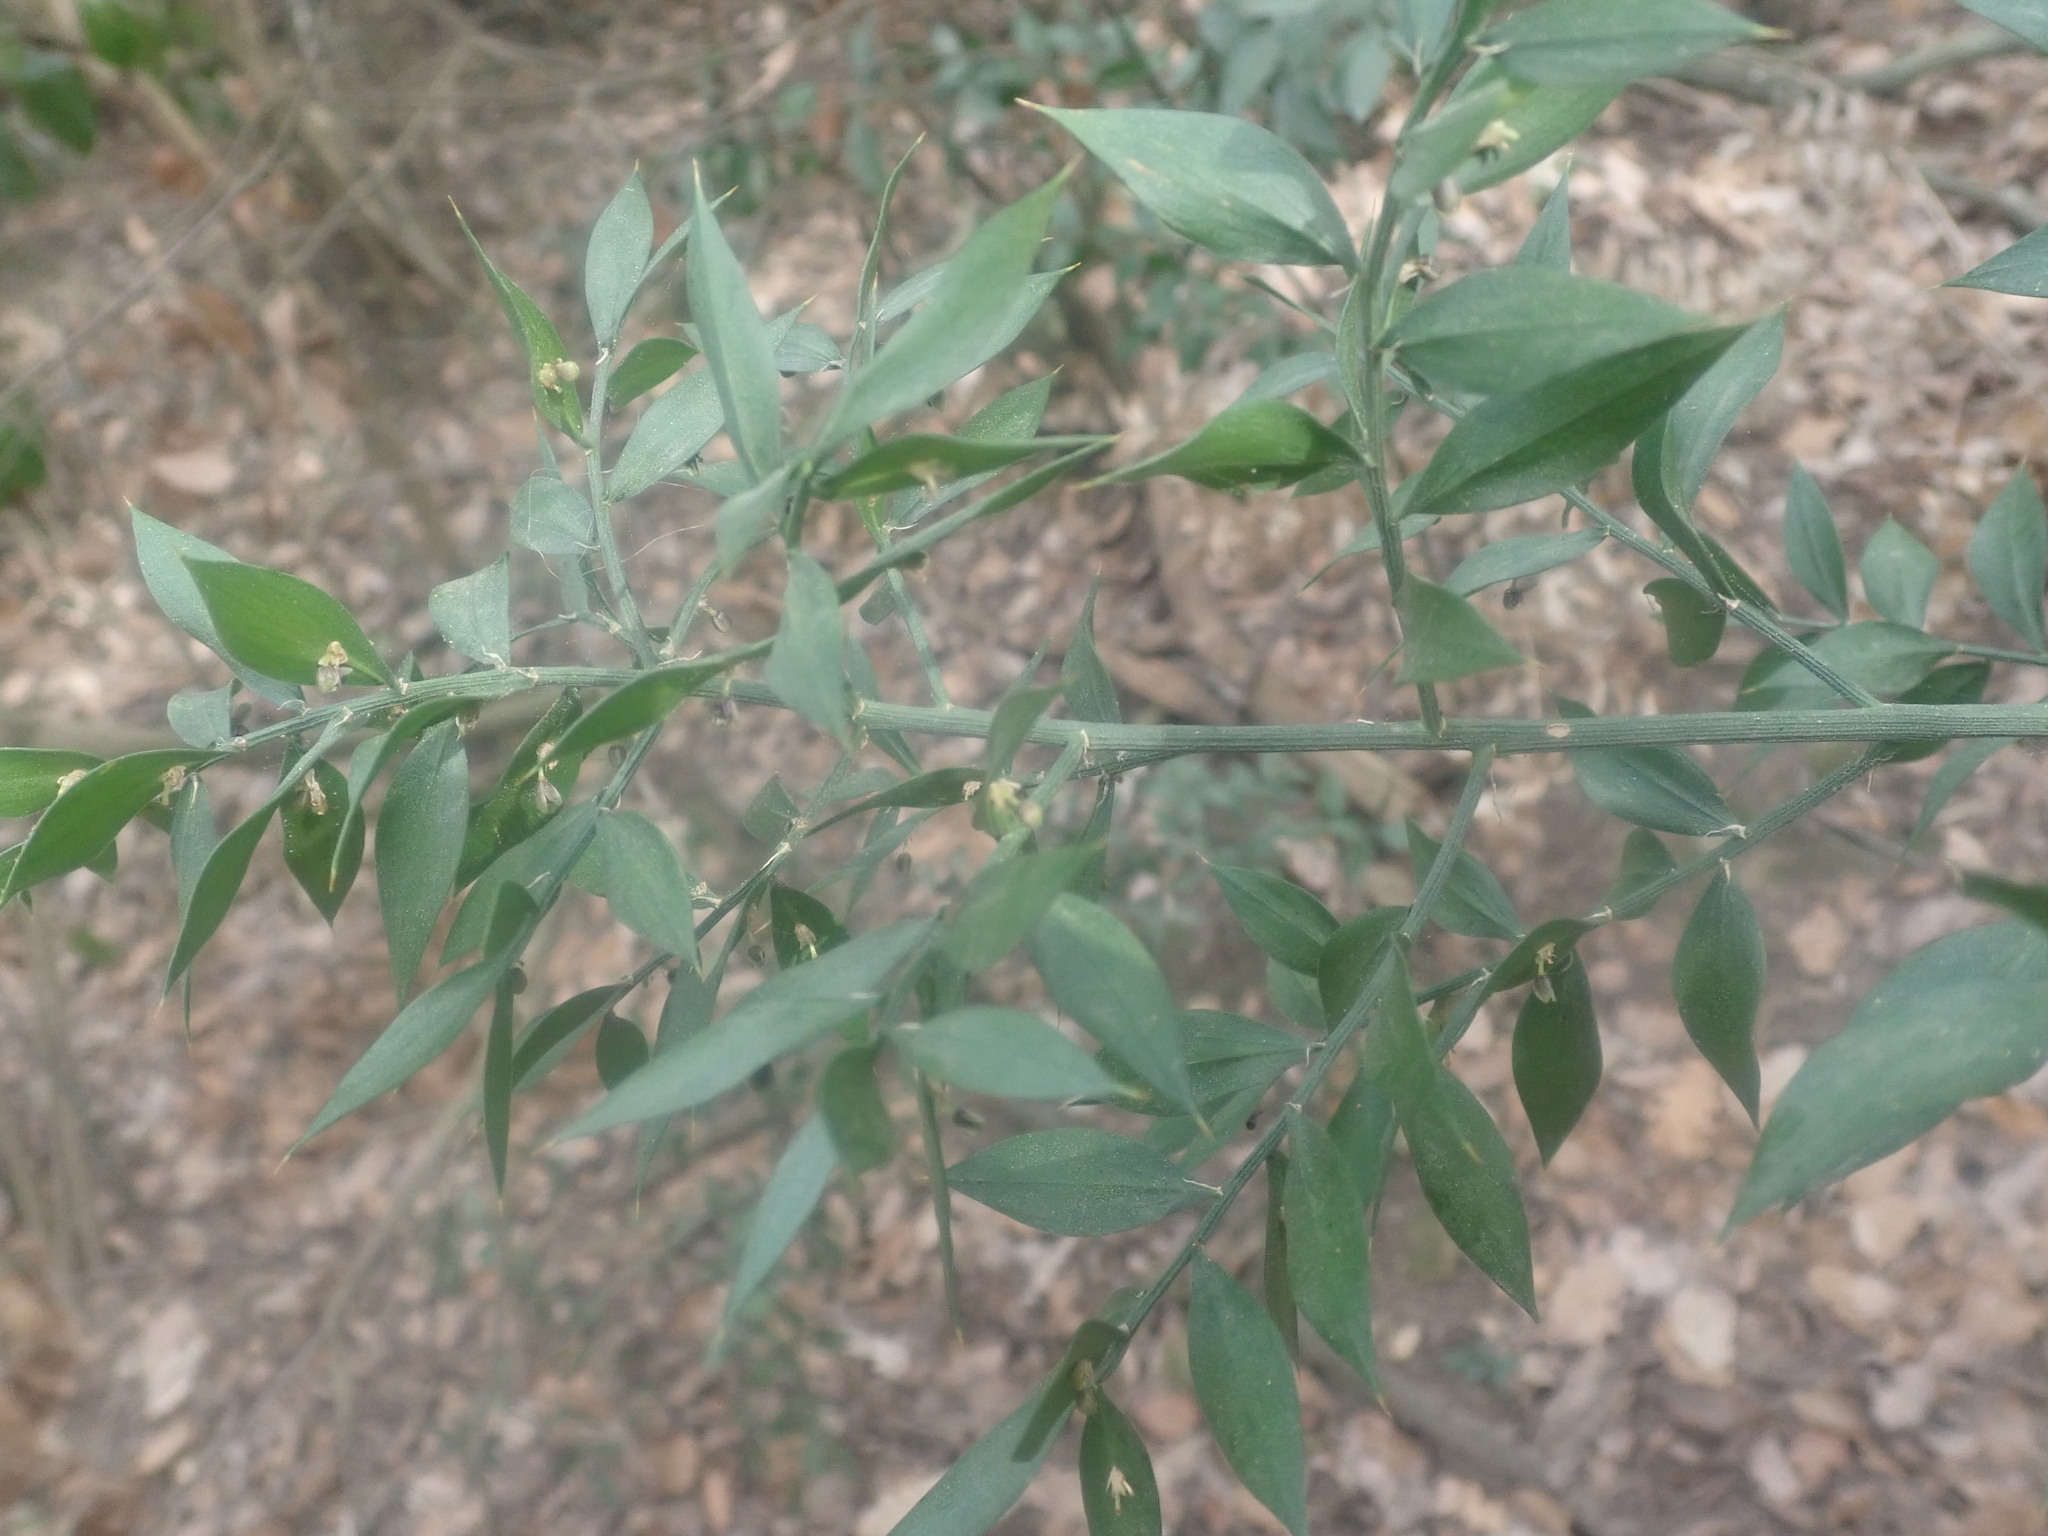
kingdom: Plantae
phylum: Tracheophyta
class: Liliopsida
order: Asparagales
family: Asparagaceae
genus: Ruscus
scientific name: Ruscus aculeatus
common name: Butcher's-broom
